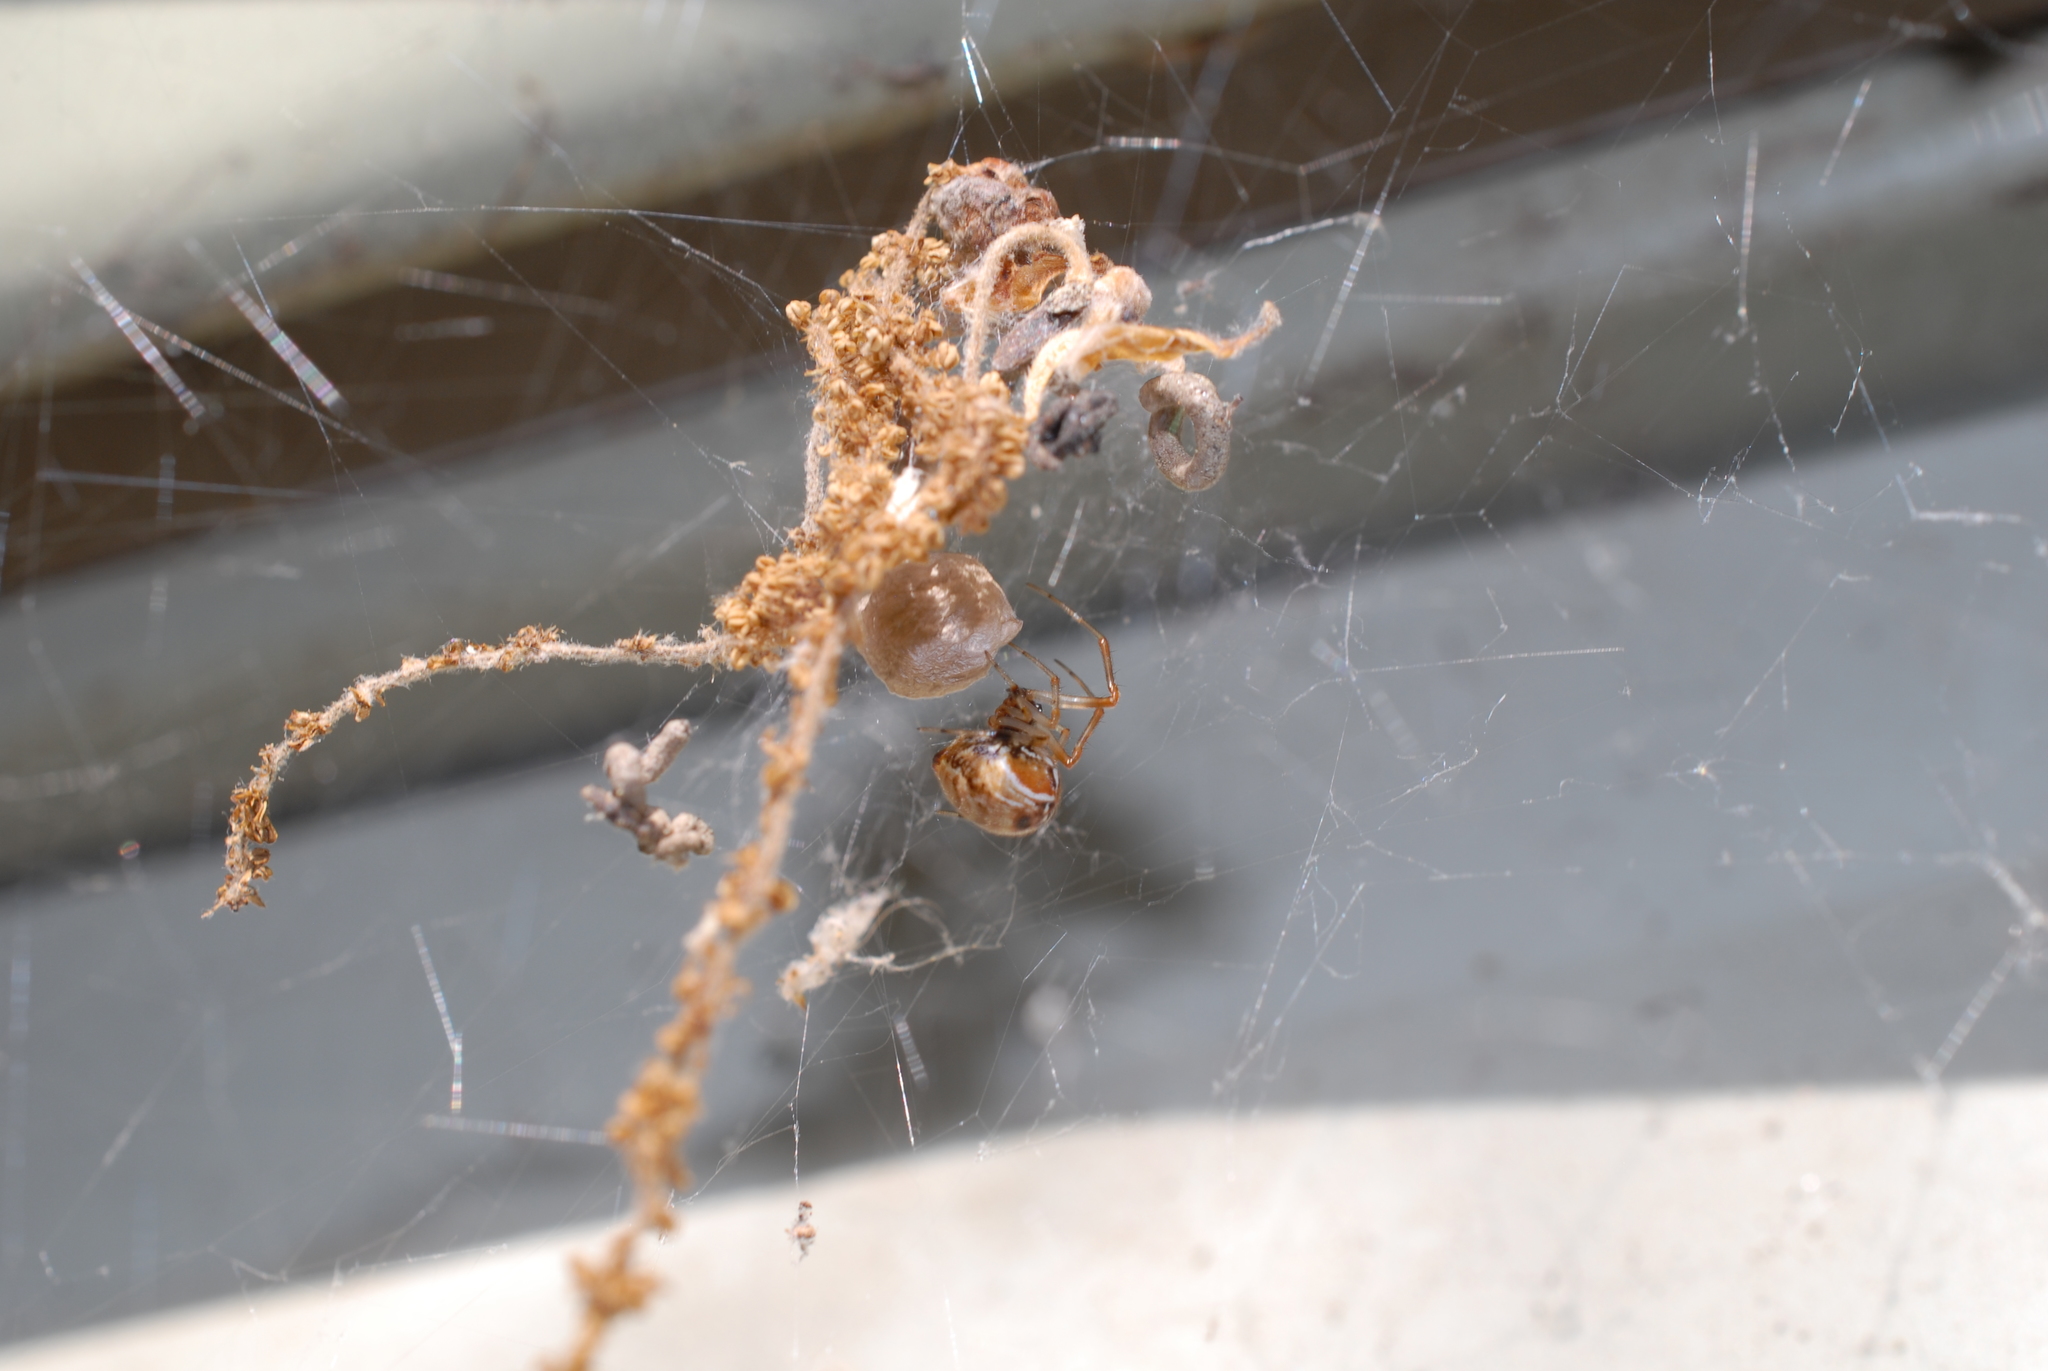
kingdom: Animalia
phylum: Arthropoda
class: Arachnida
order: Araneae
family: Theridiidae
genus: Parasteatoda
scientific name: Parasteatoda lunata
